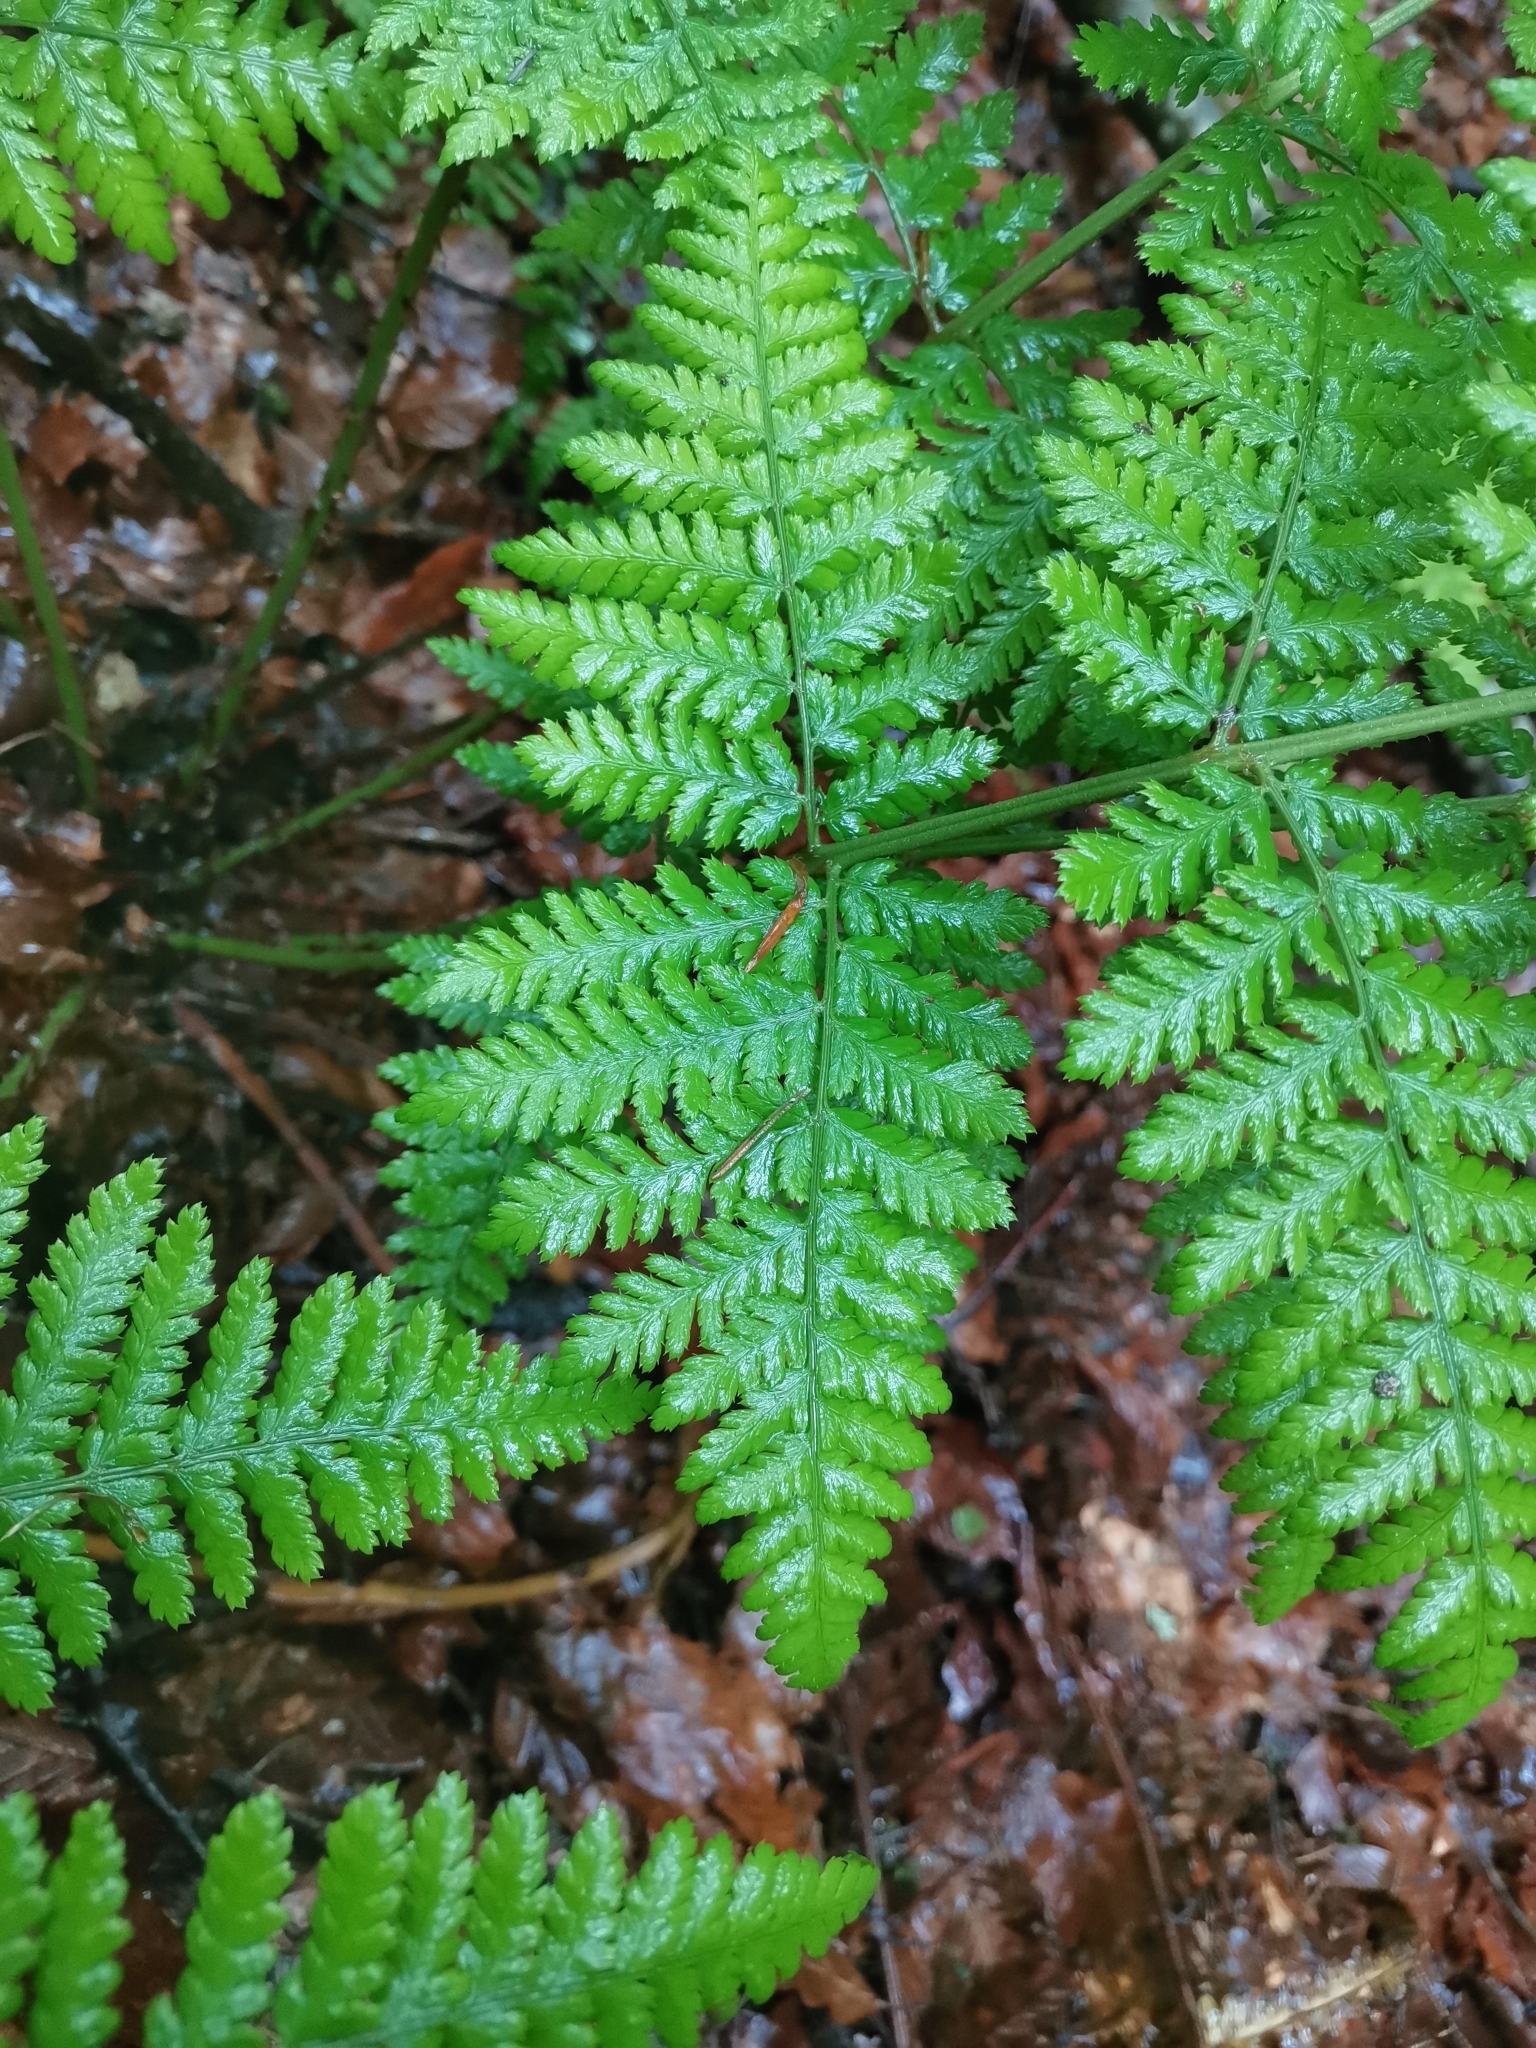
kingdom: Plantae
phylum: Tracheophyta
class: Polypodiopsida
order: Polypodiales
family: Dryopteridaceae
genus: Dryopteris
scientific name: Dryopteris carthusiana
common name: Narrow buckler-fern
